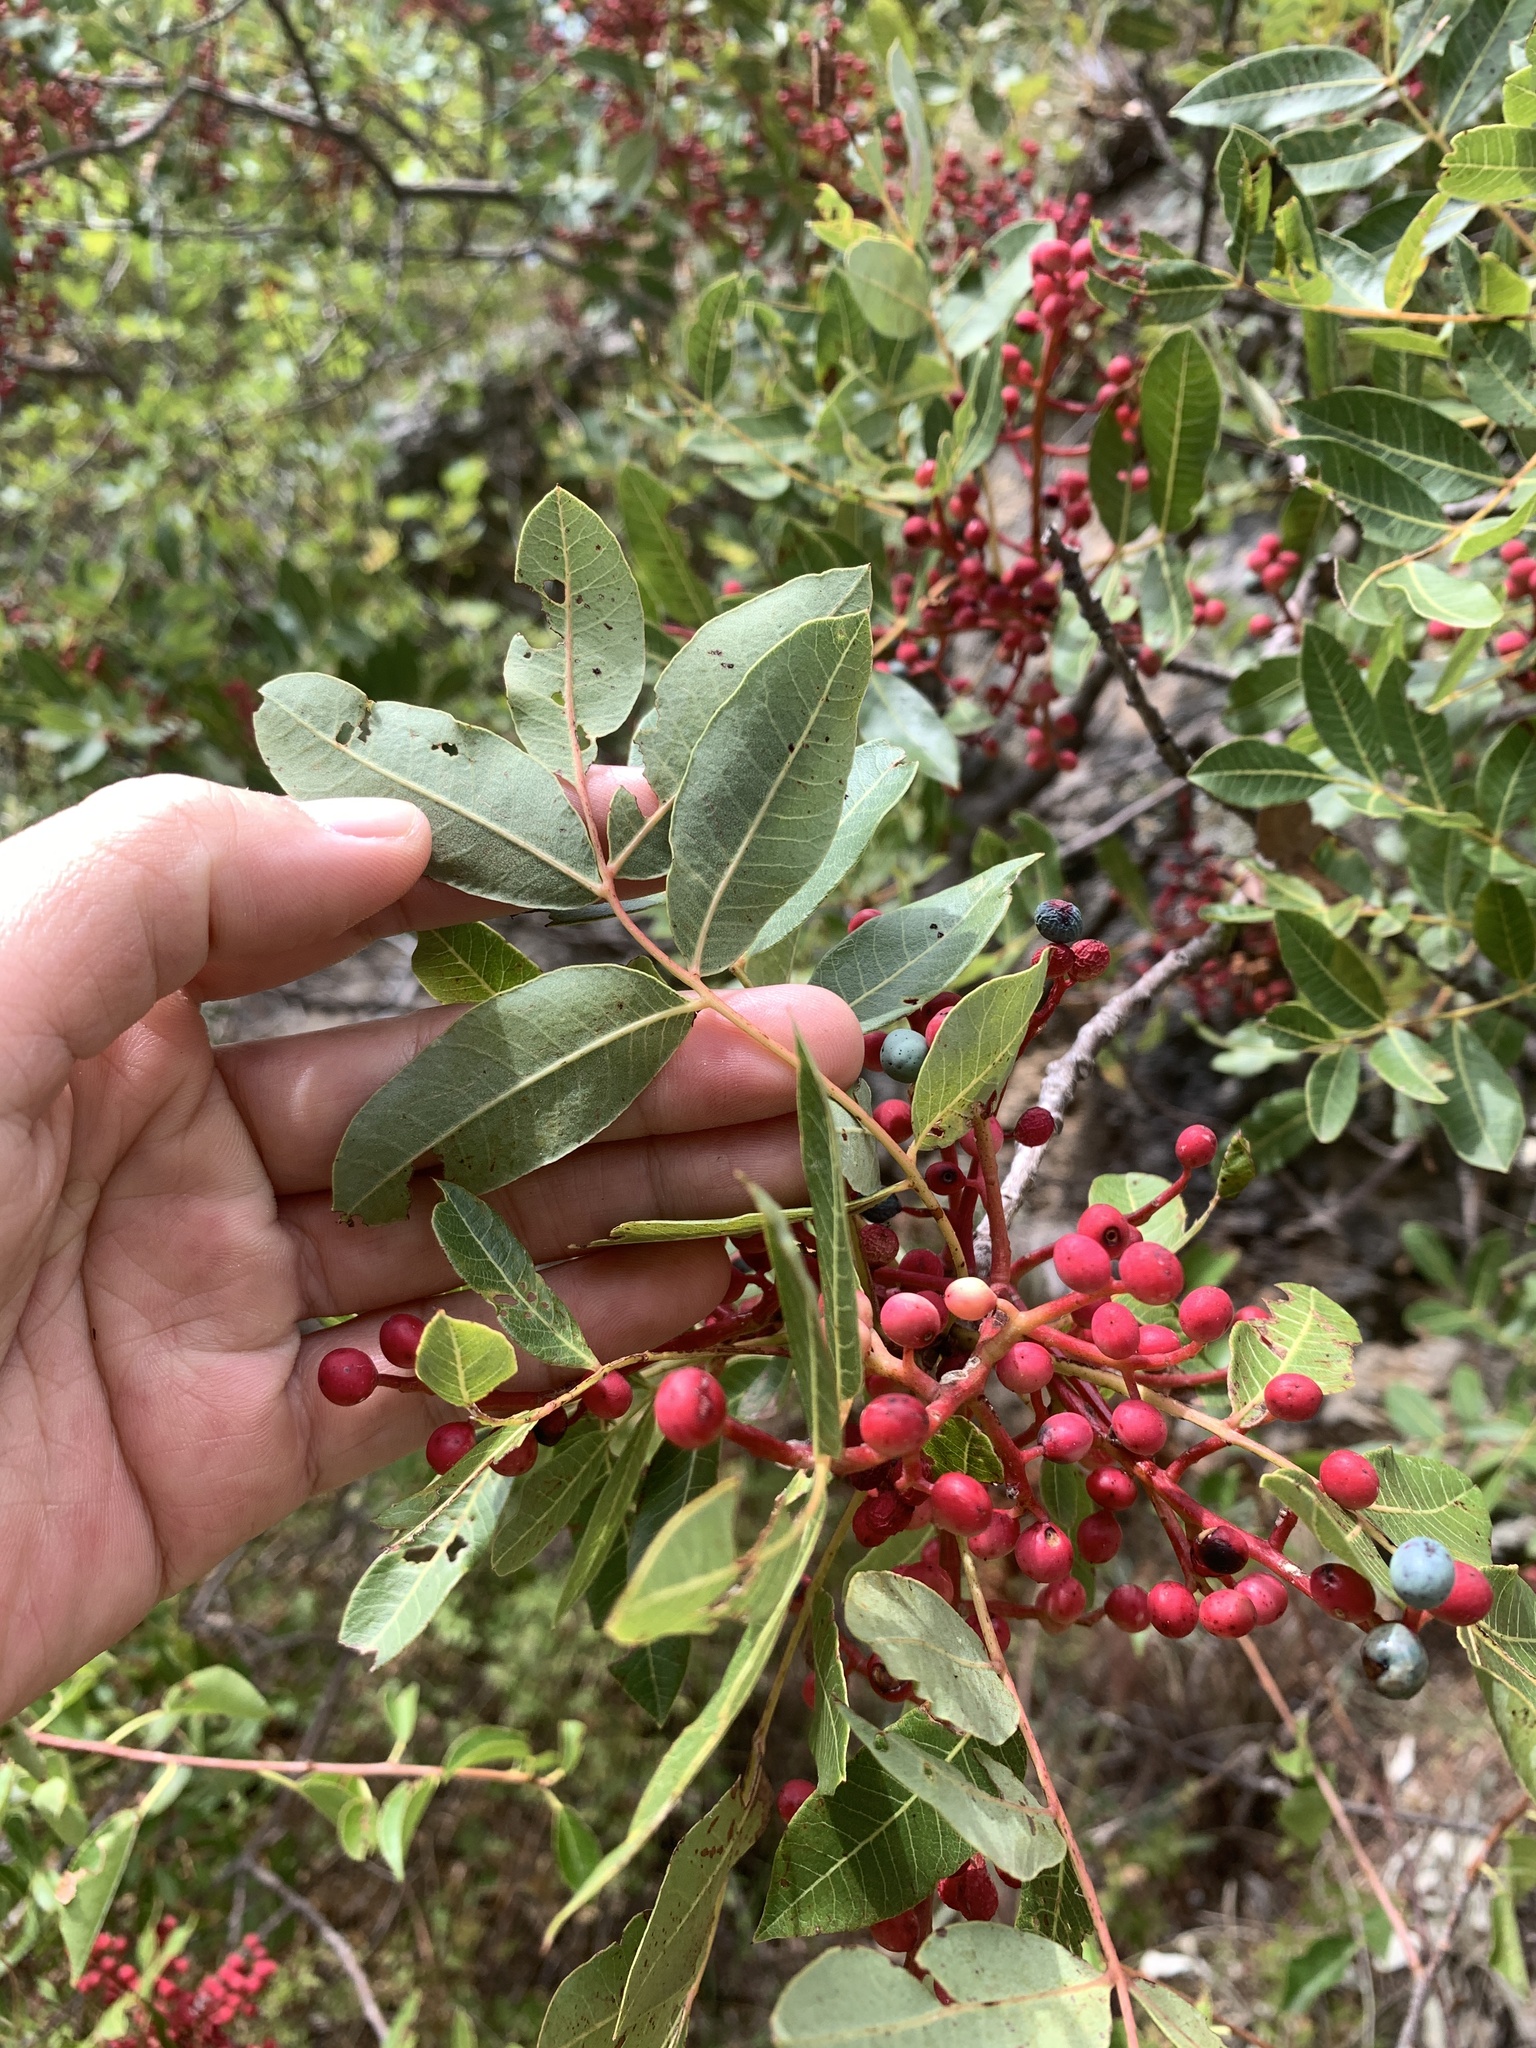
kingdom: Plantae
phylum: Tracheophyta
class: Magnoliopsida
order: Sapindales
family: Anacardiaceae
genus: Pistacia
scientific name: Pistacia terebinthus
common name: Terebinth
